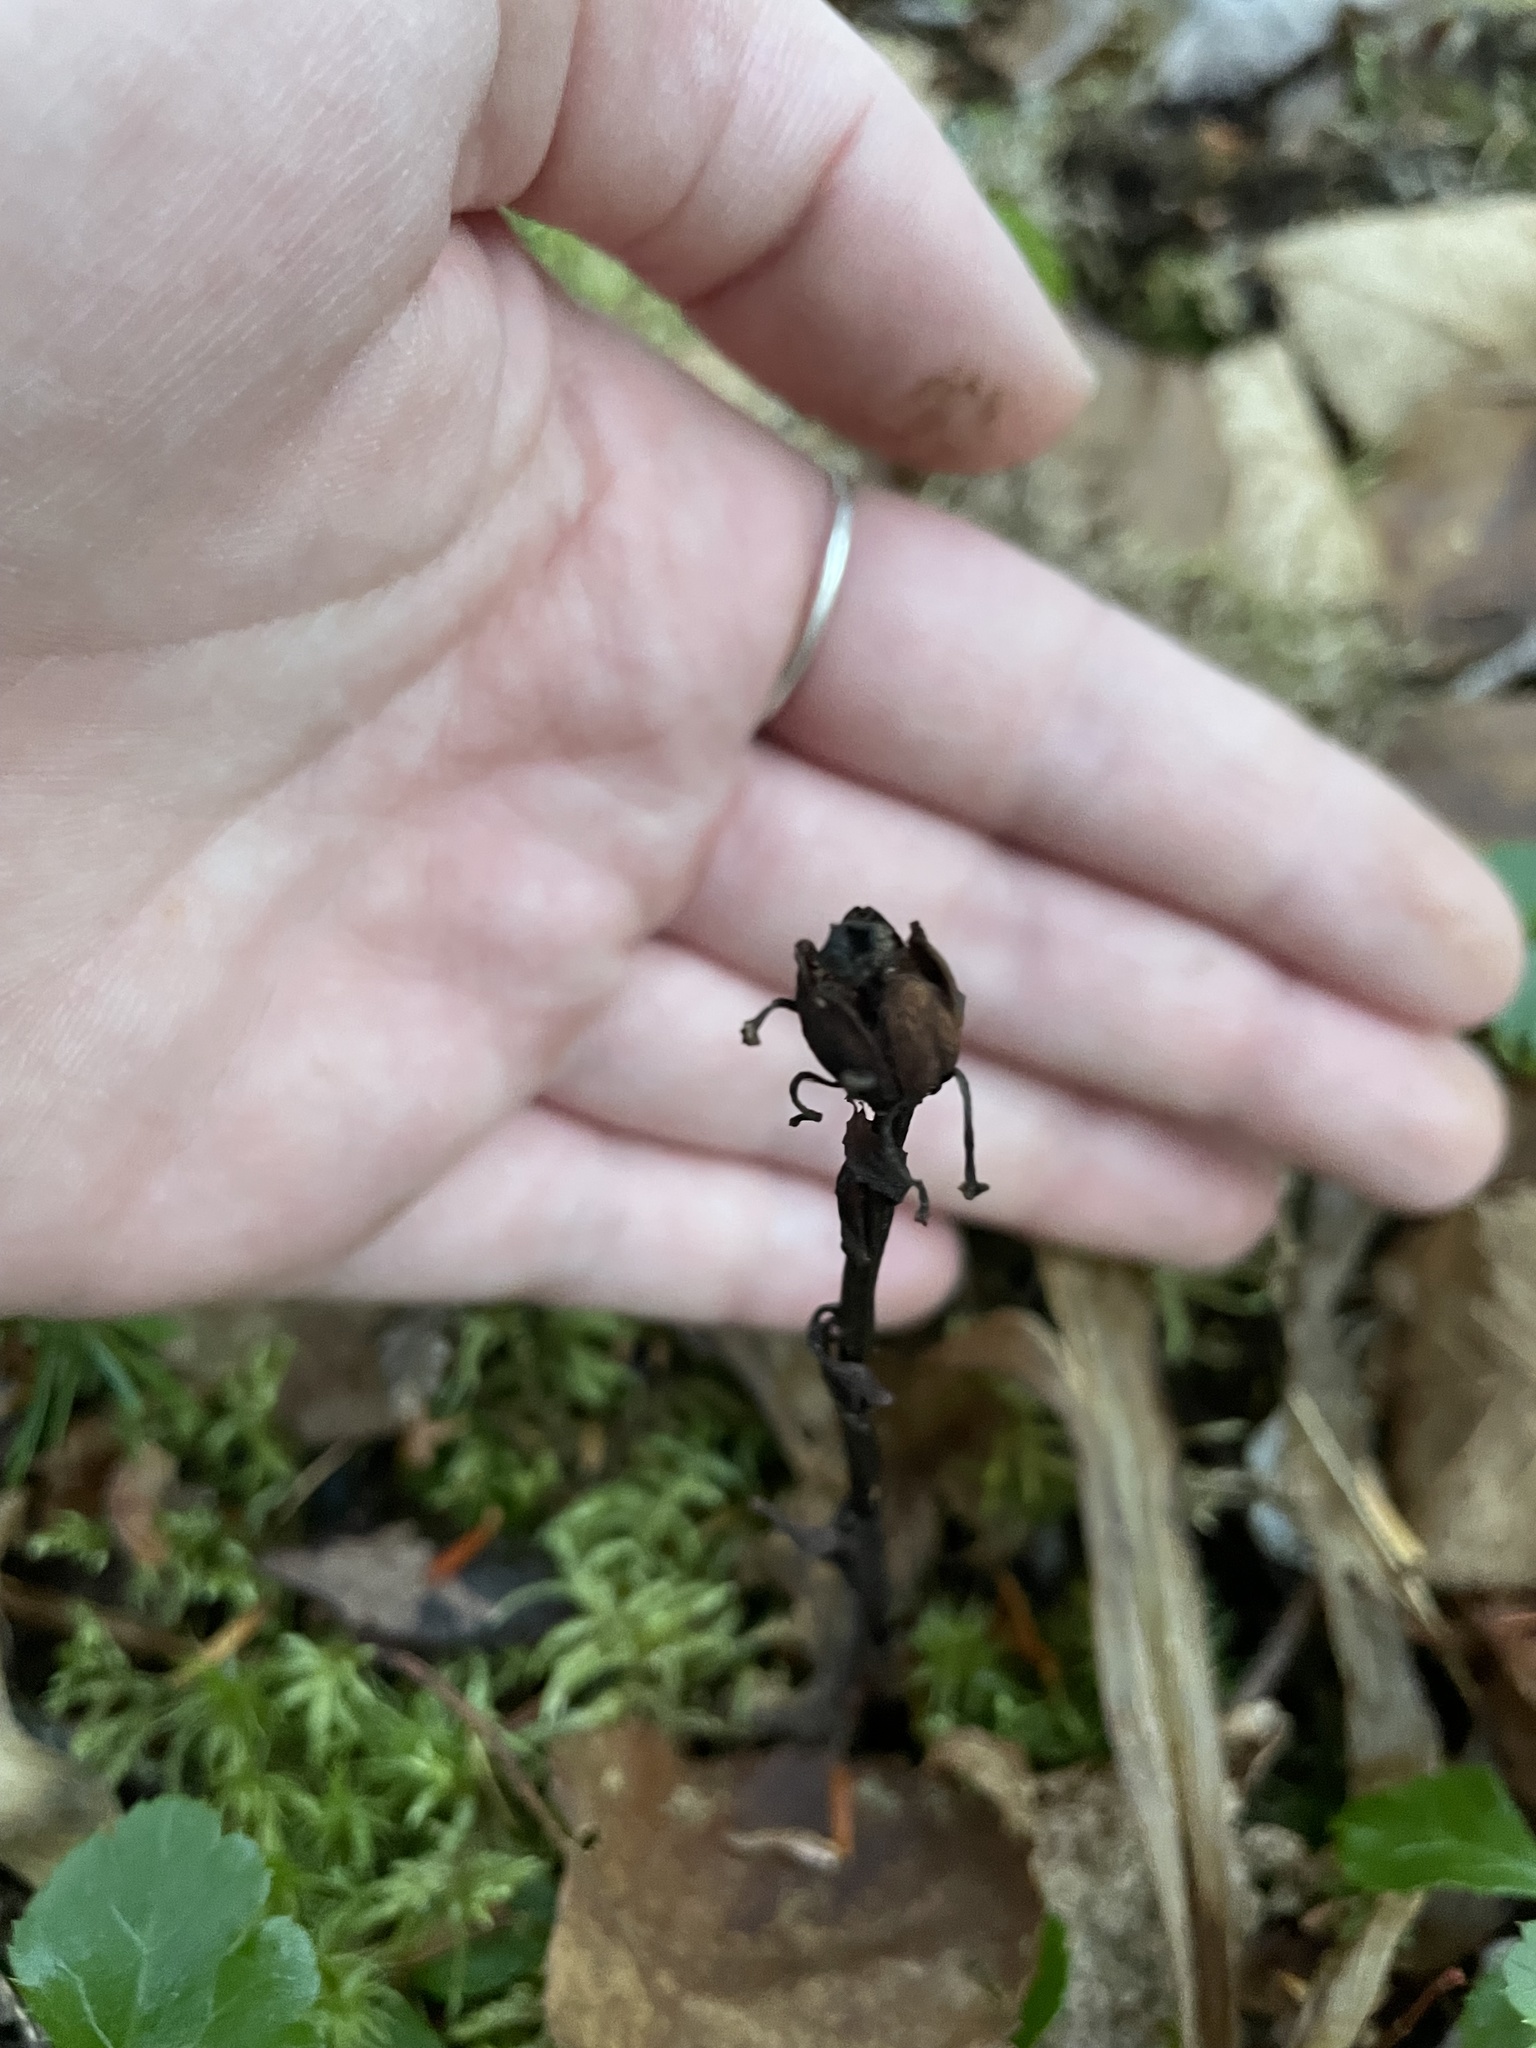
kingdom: Plantae
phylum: Tracheophyta
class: Magnoliopsida
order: Ericales
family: Ericaceae
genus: Monotropa
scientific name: Monotropa uniflora
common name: Convulsion root
